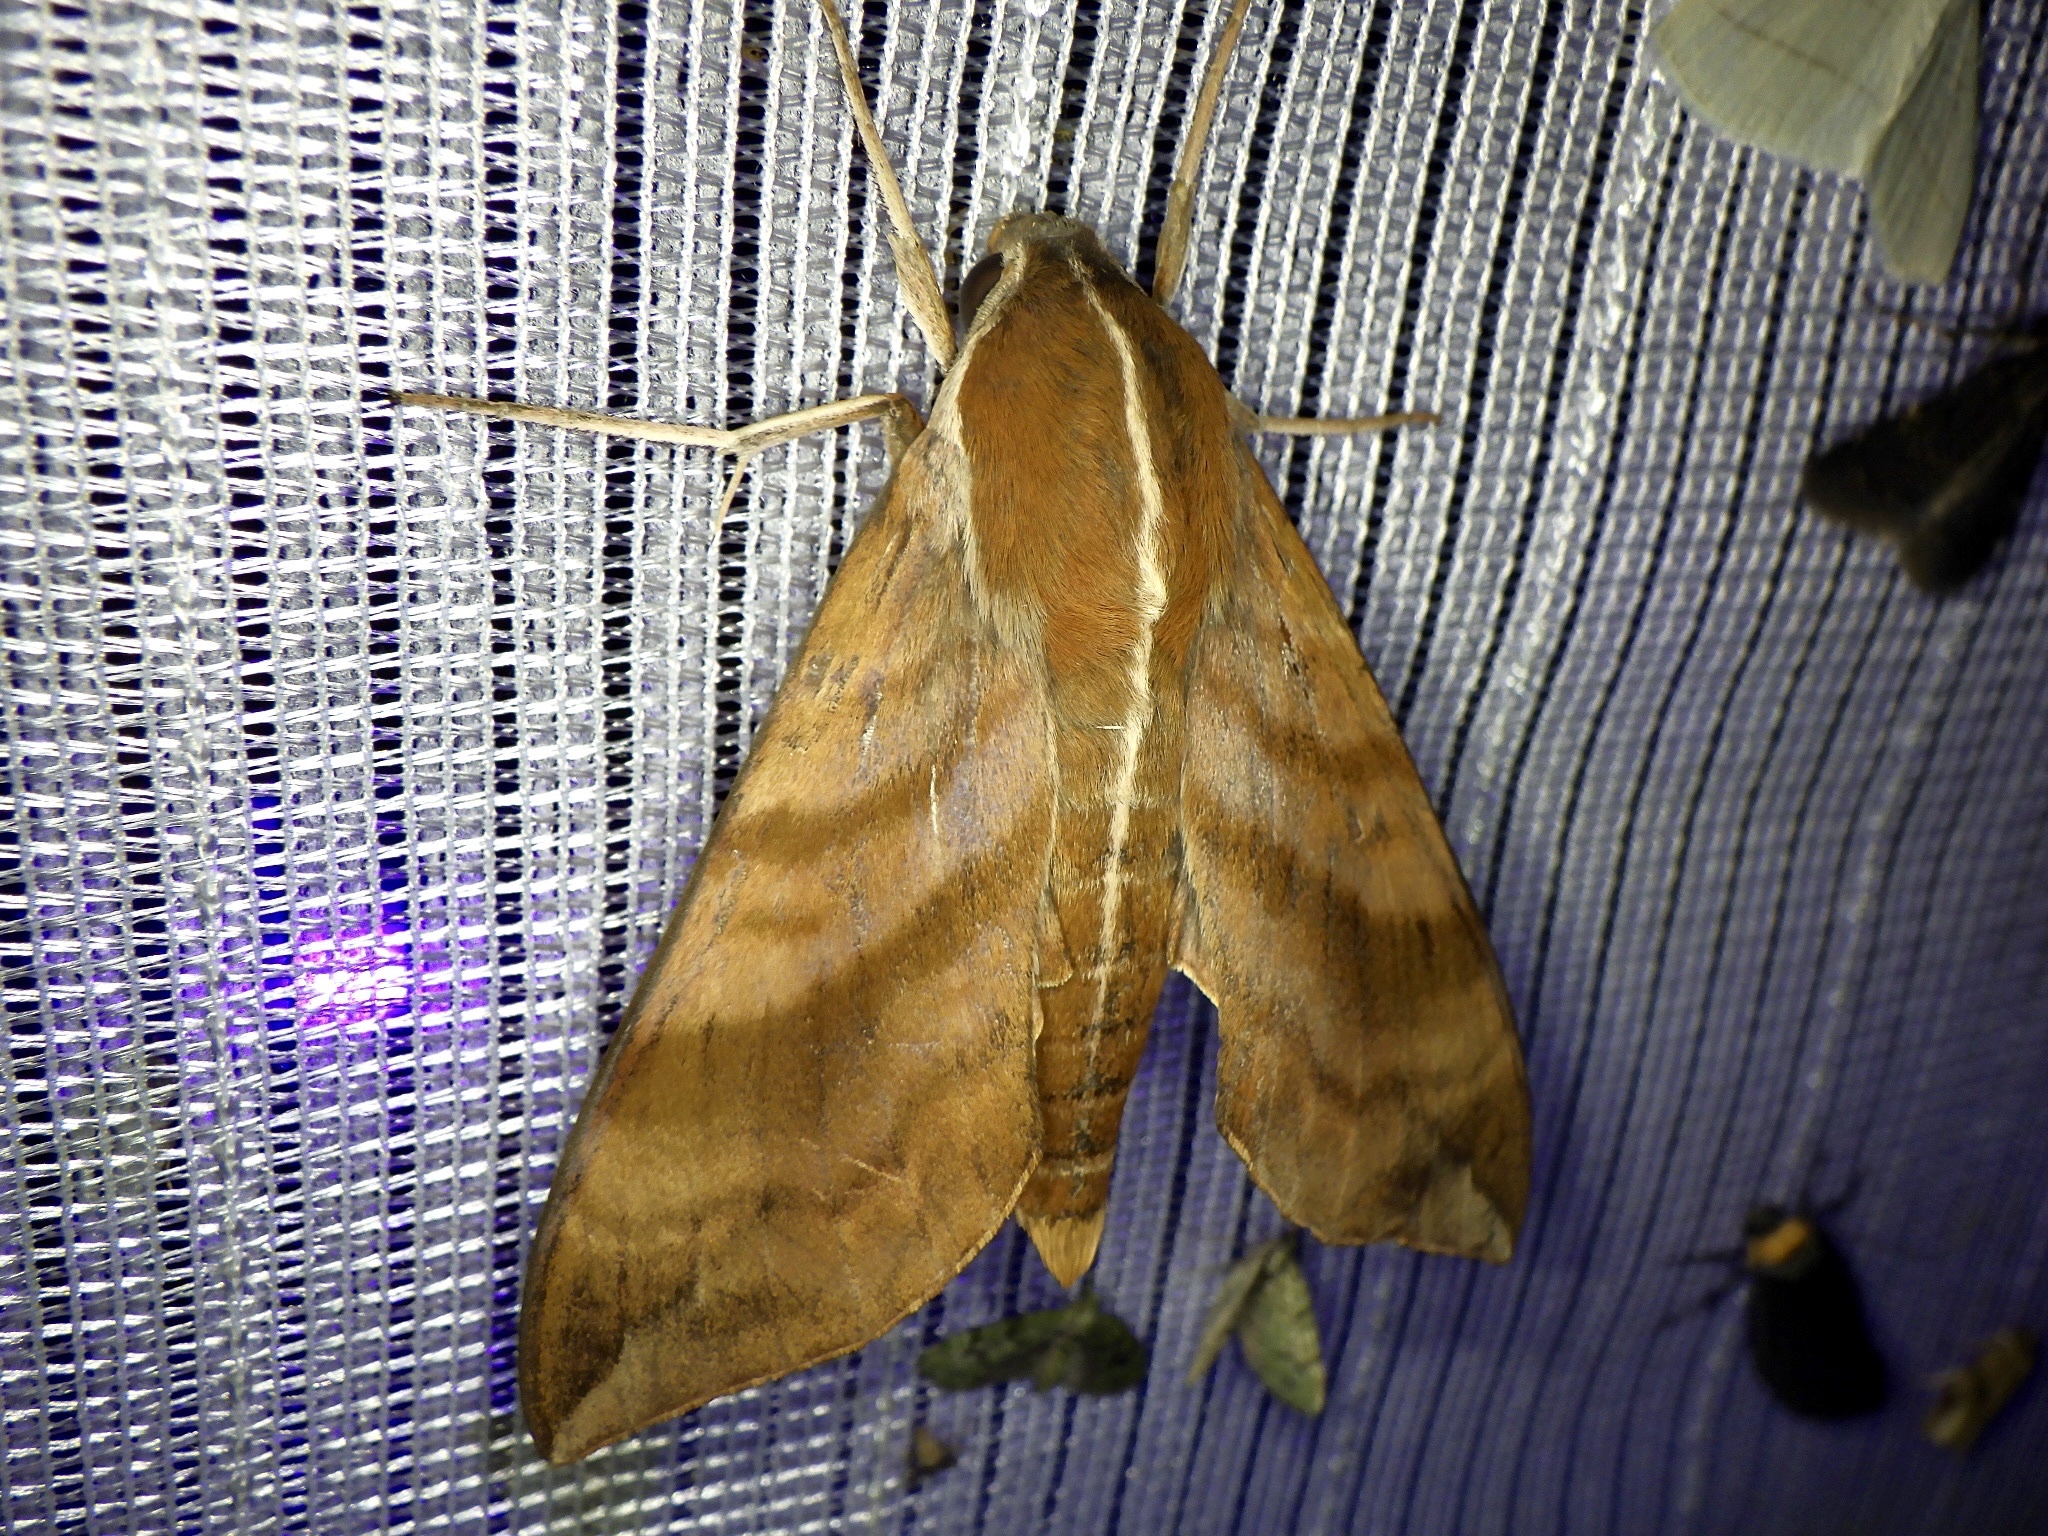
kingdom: Animalia
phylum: Arthropoda
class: Insecta
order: Lepidoptera
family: Sphingidae
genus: Ampelophaga
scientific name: Ampelophaga rubiginosa
